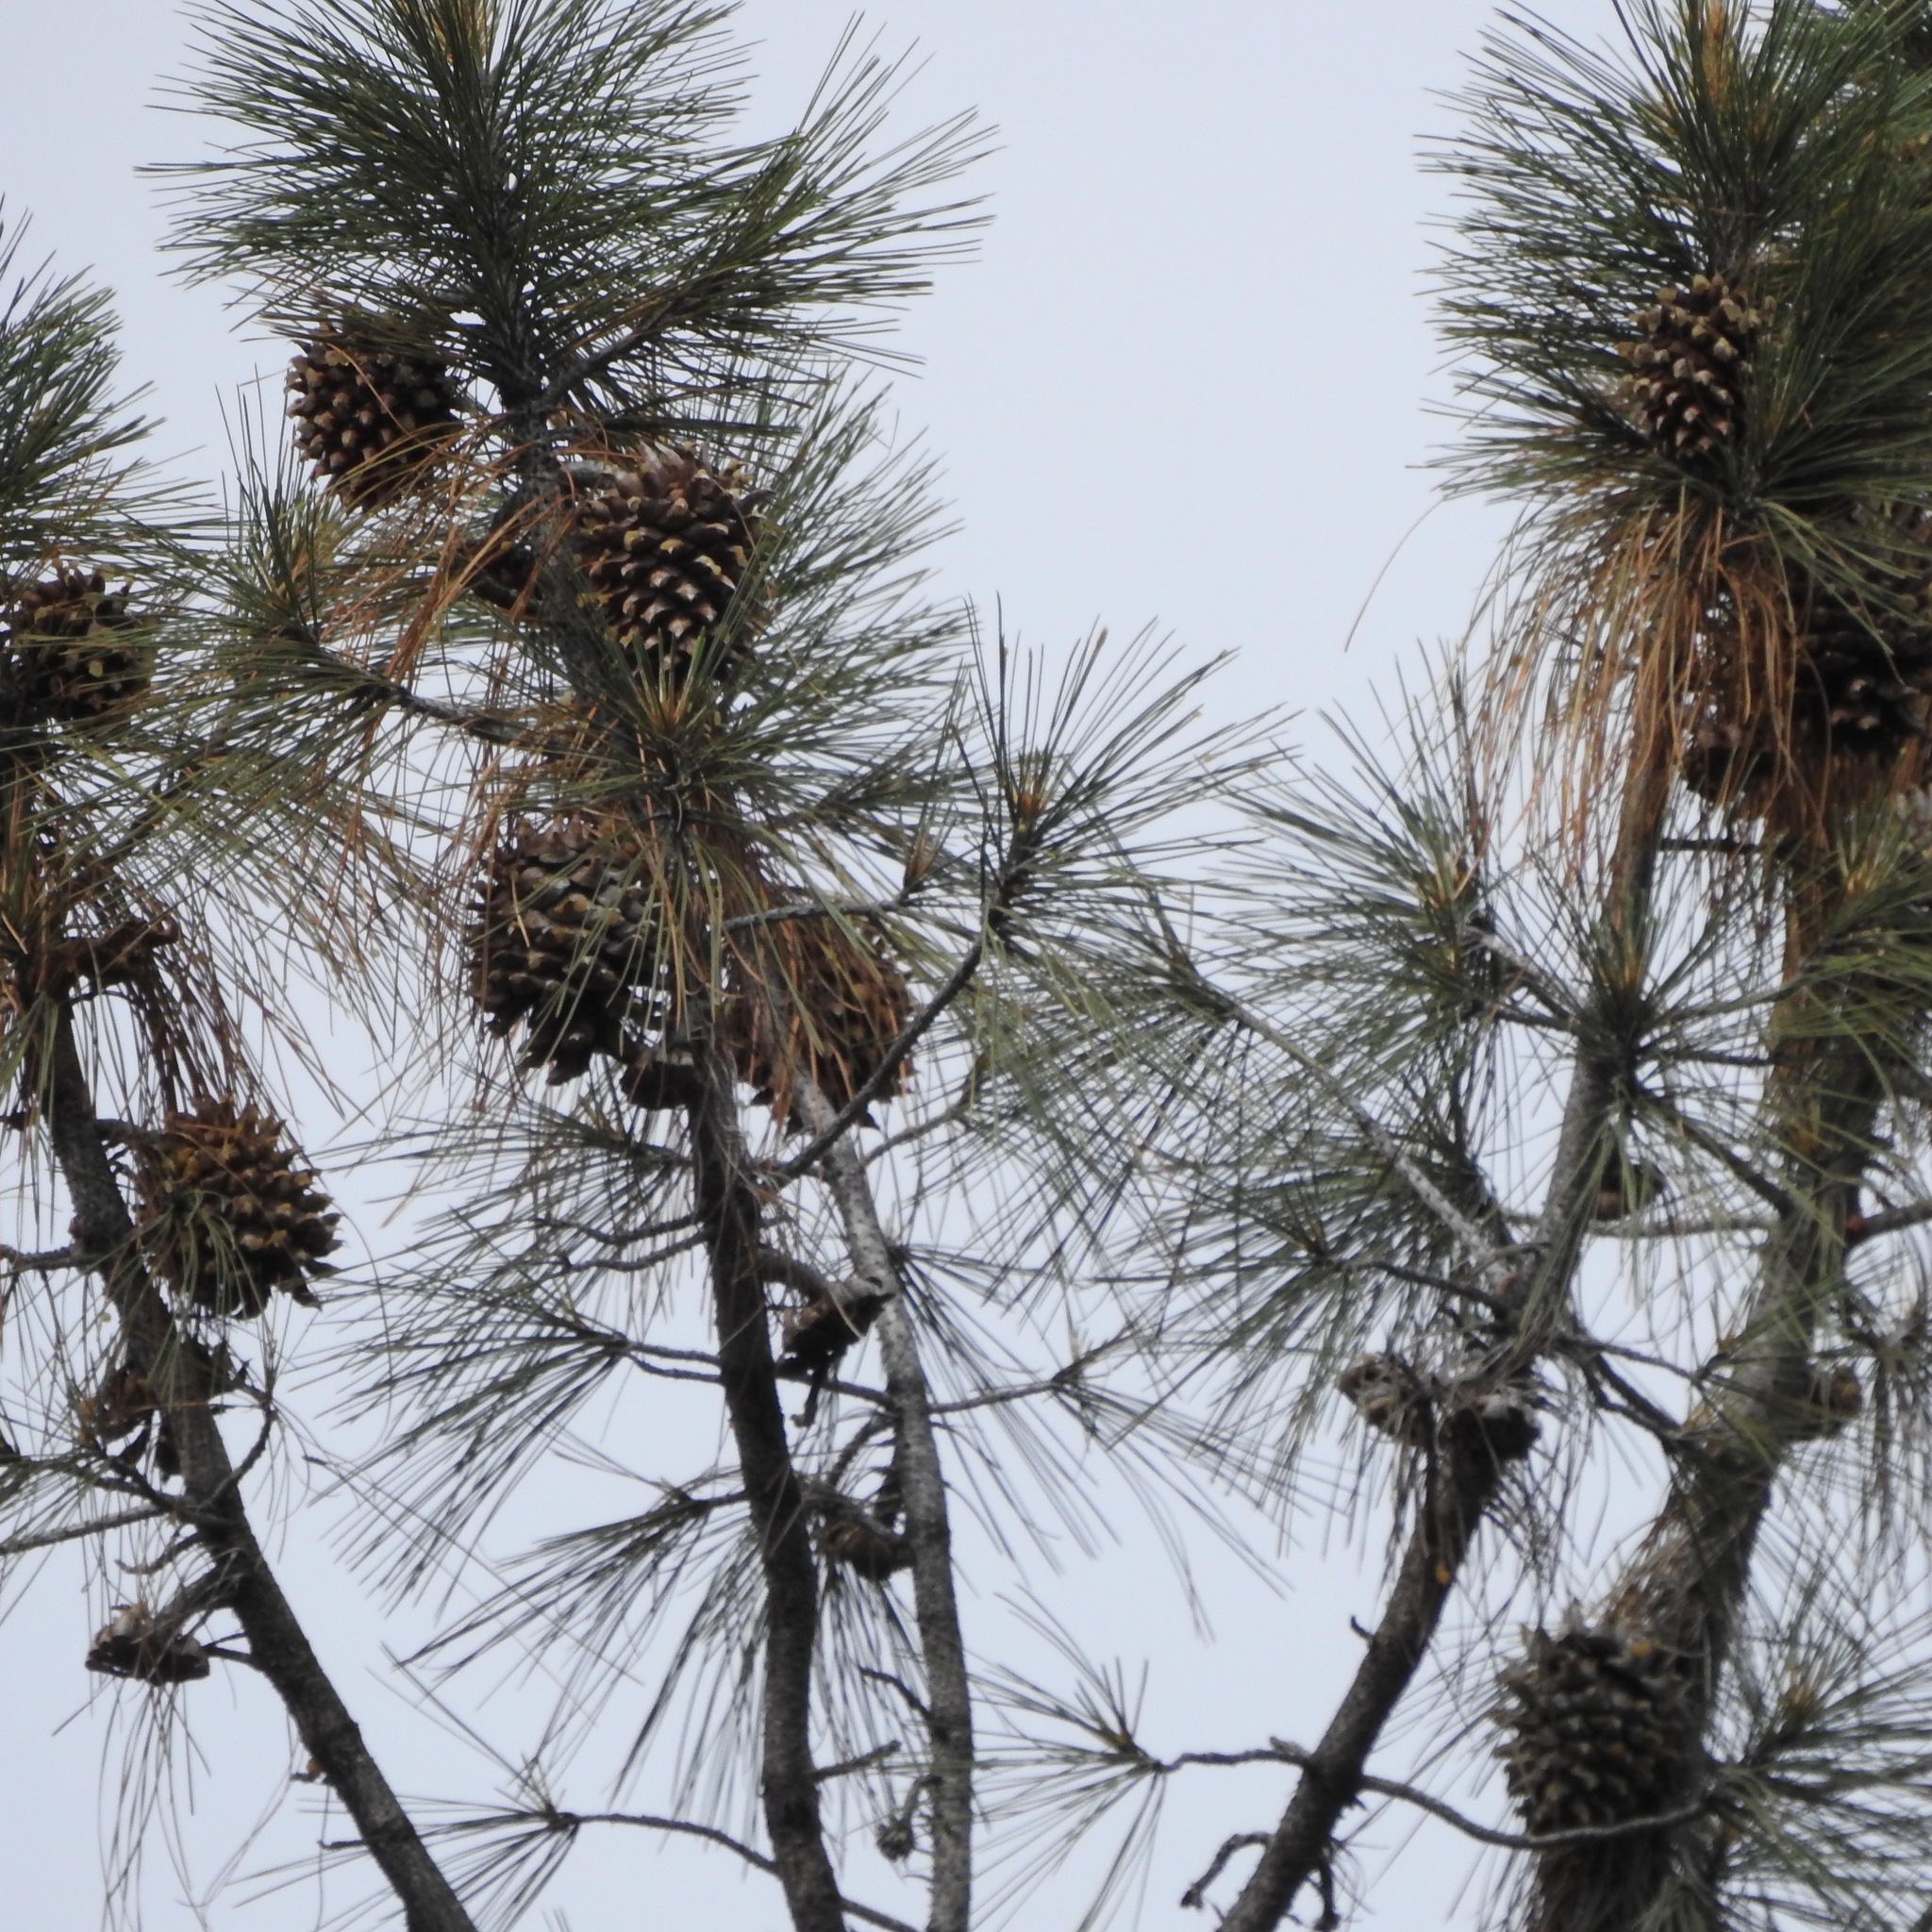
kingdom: Plantae
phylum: Tracheophyta
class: Pinopsida
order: Pinales
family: Pinaceae
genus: Pinus
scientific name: Pinus sabiniana
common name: Bull pine
